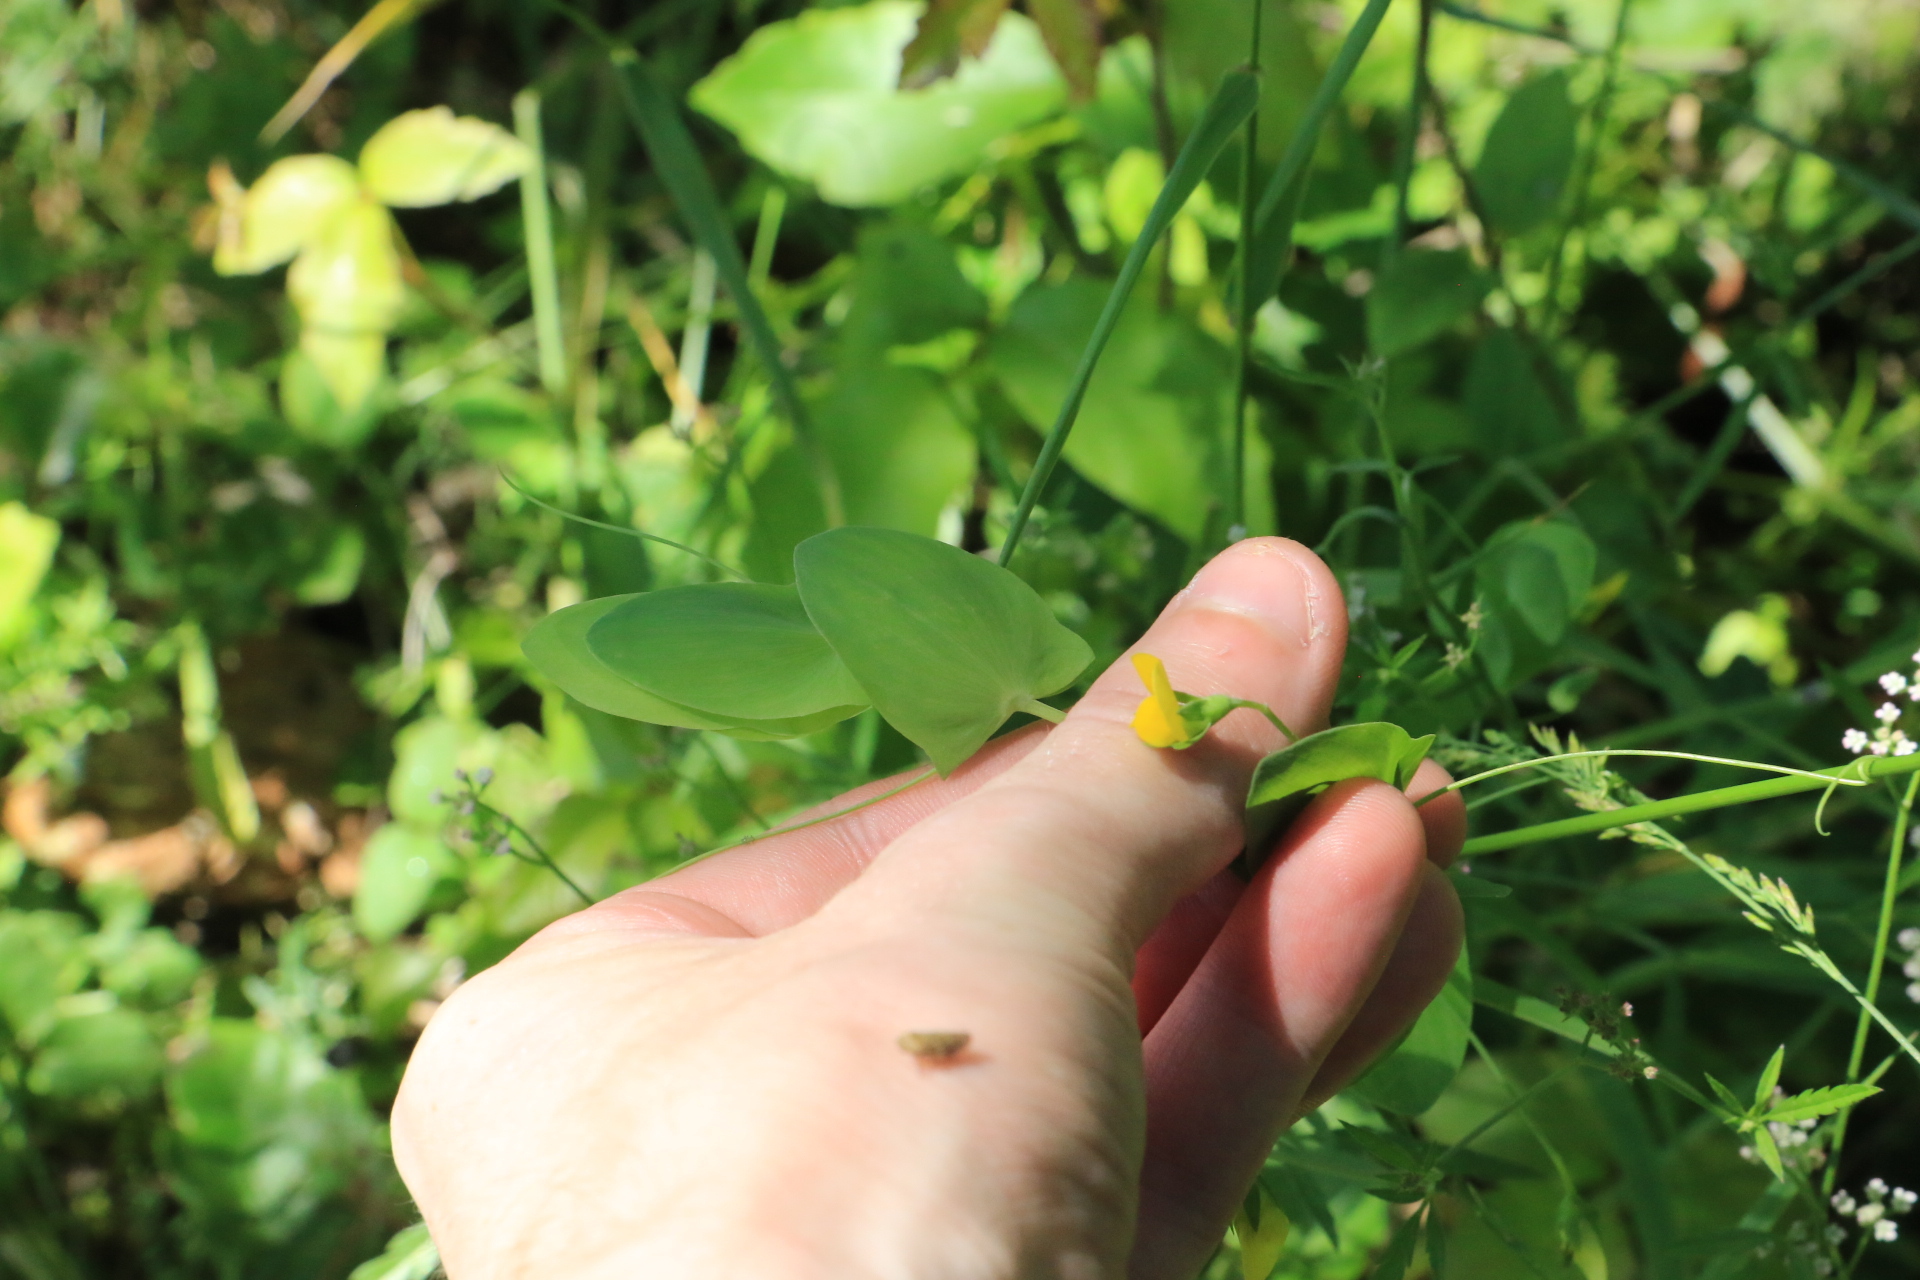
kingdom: Plantae
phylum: Tracheophyta
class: Magnoliopsida
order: Fabales
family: Fabaceae
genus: Lathyrus
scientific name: Lathyrus aphaca
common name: Yellow vetchling
